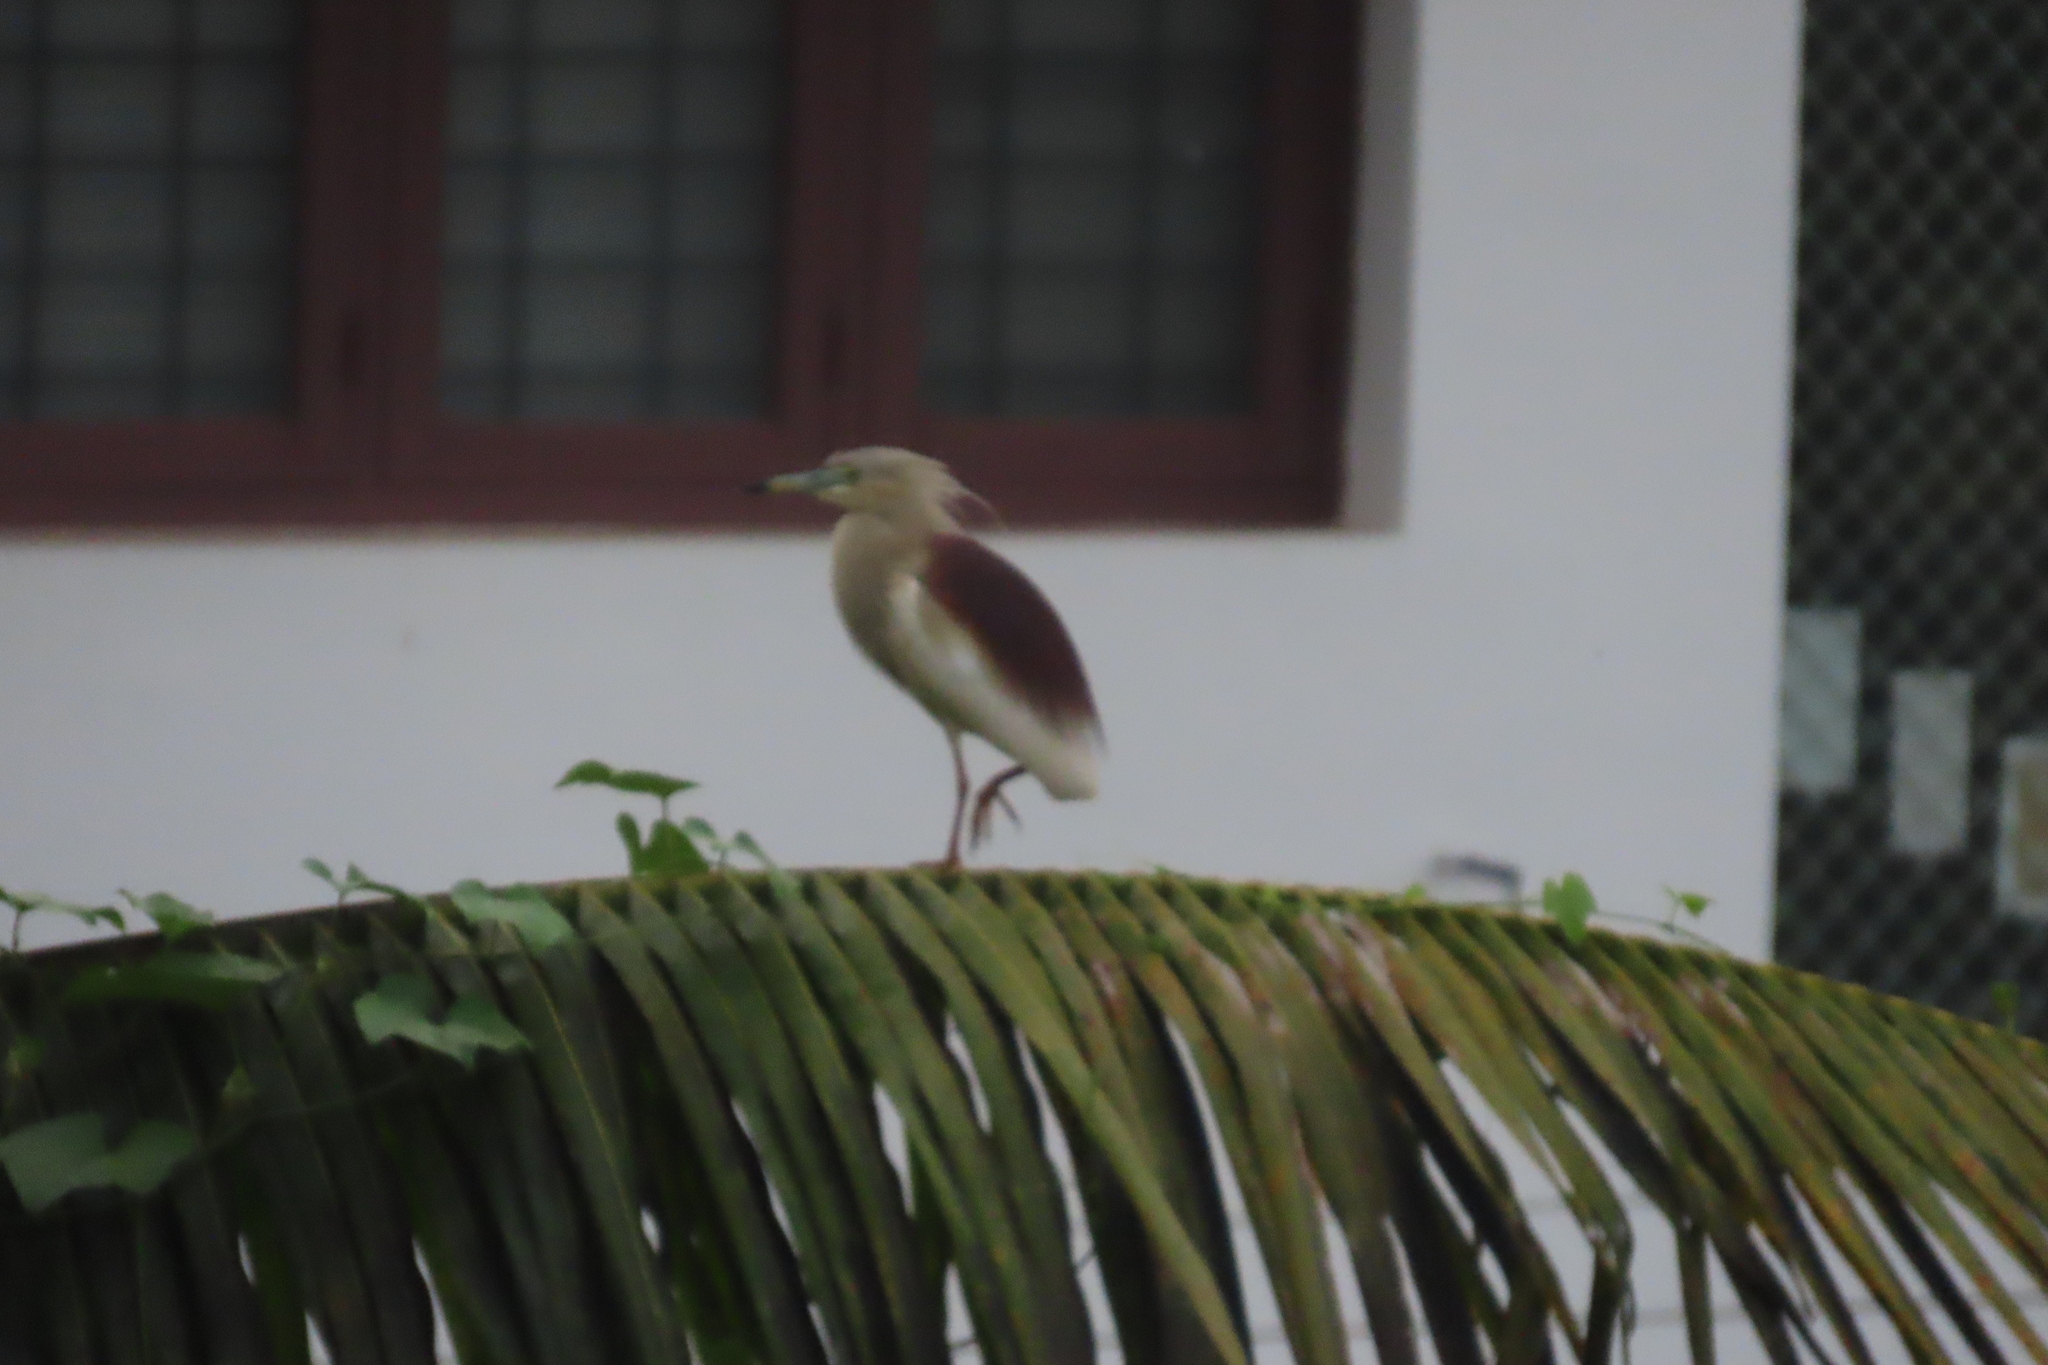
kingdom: Animalia
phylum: Chordata
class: Aves
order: Pelecaniformes
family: Ardeidae
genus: Ardeola
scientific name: Ardeola grayii
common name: Indian pond heron
